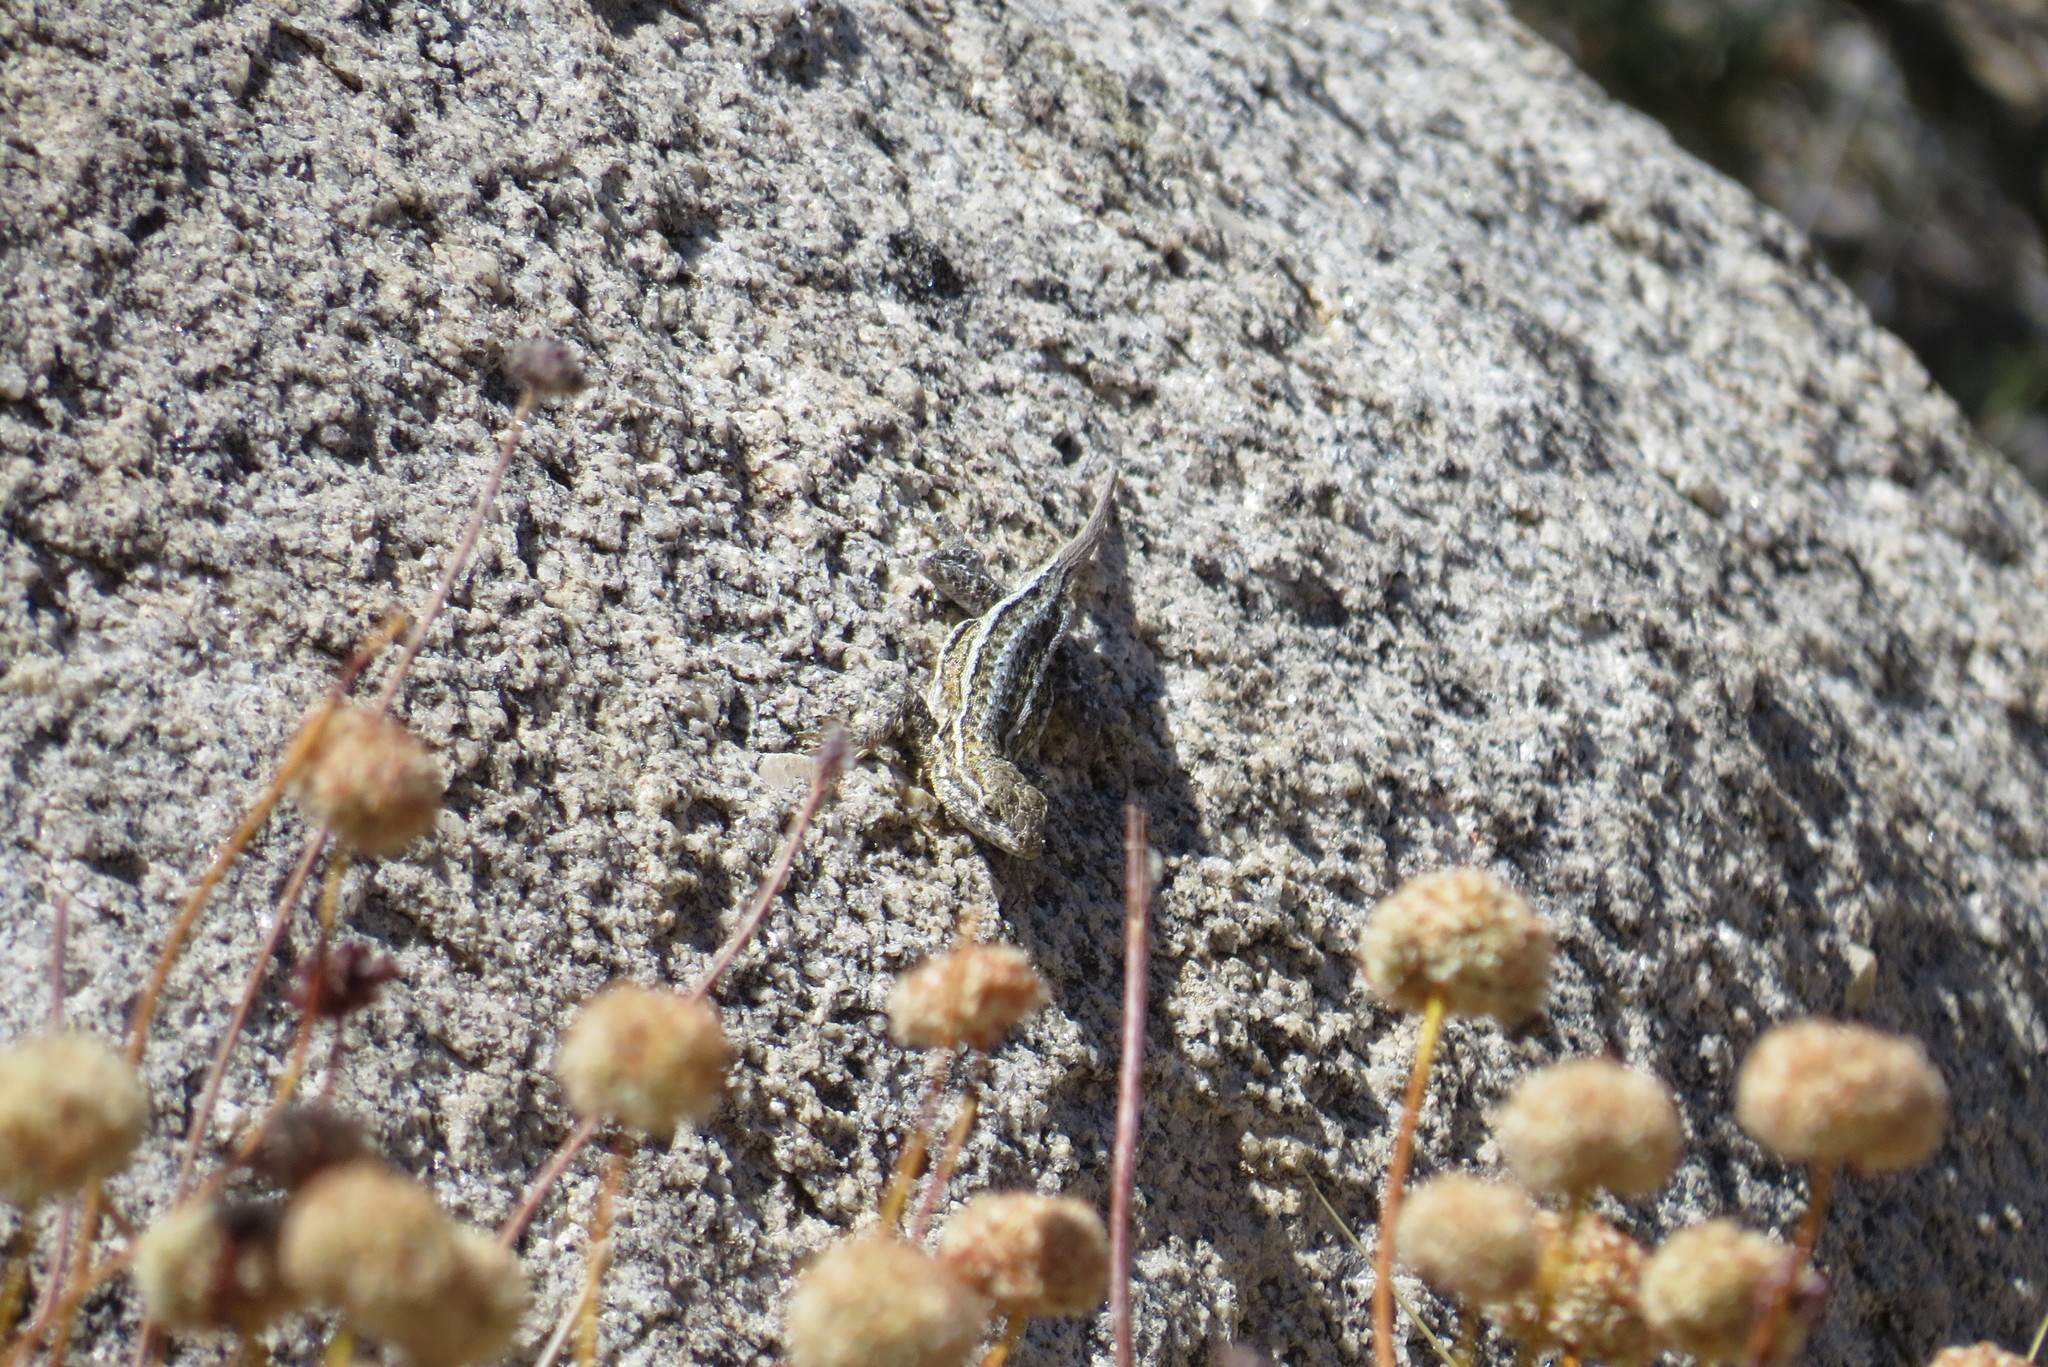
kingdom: Animalia
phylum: Chordata
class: Squamata
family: Phrynosomatidae
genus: Uta
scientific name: Uta stansburiana
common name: Side-blotched lizard
